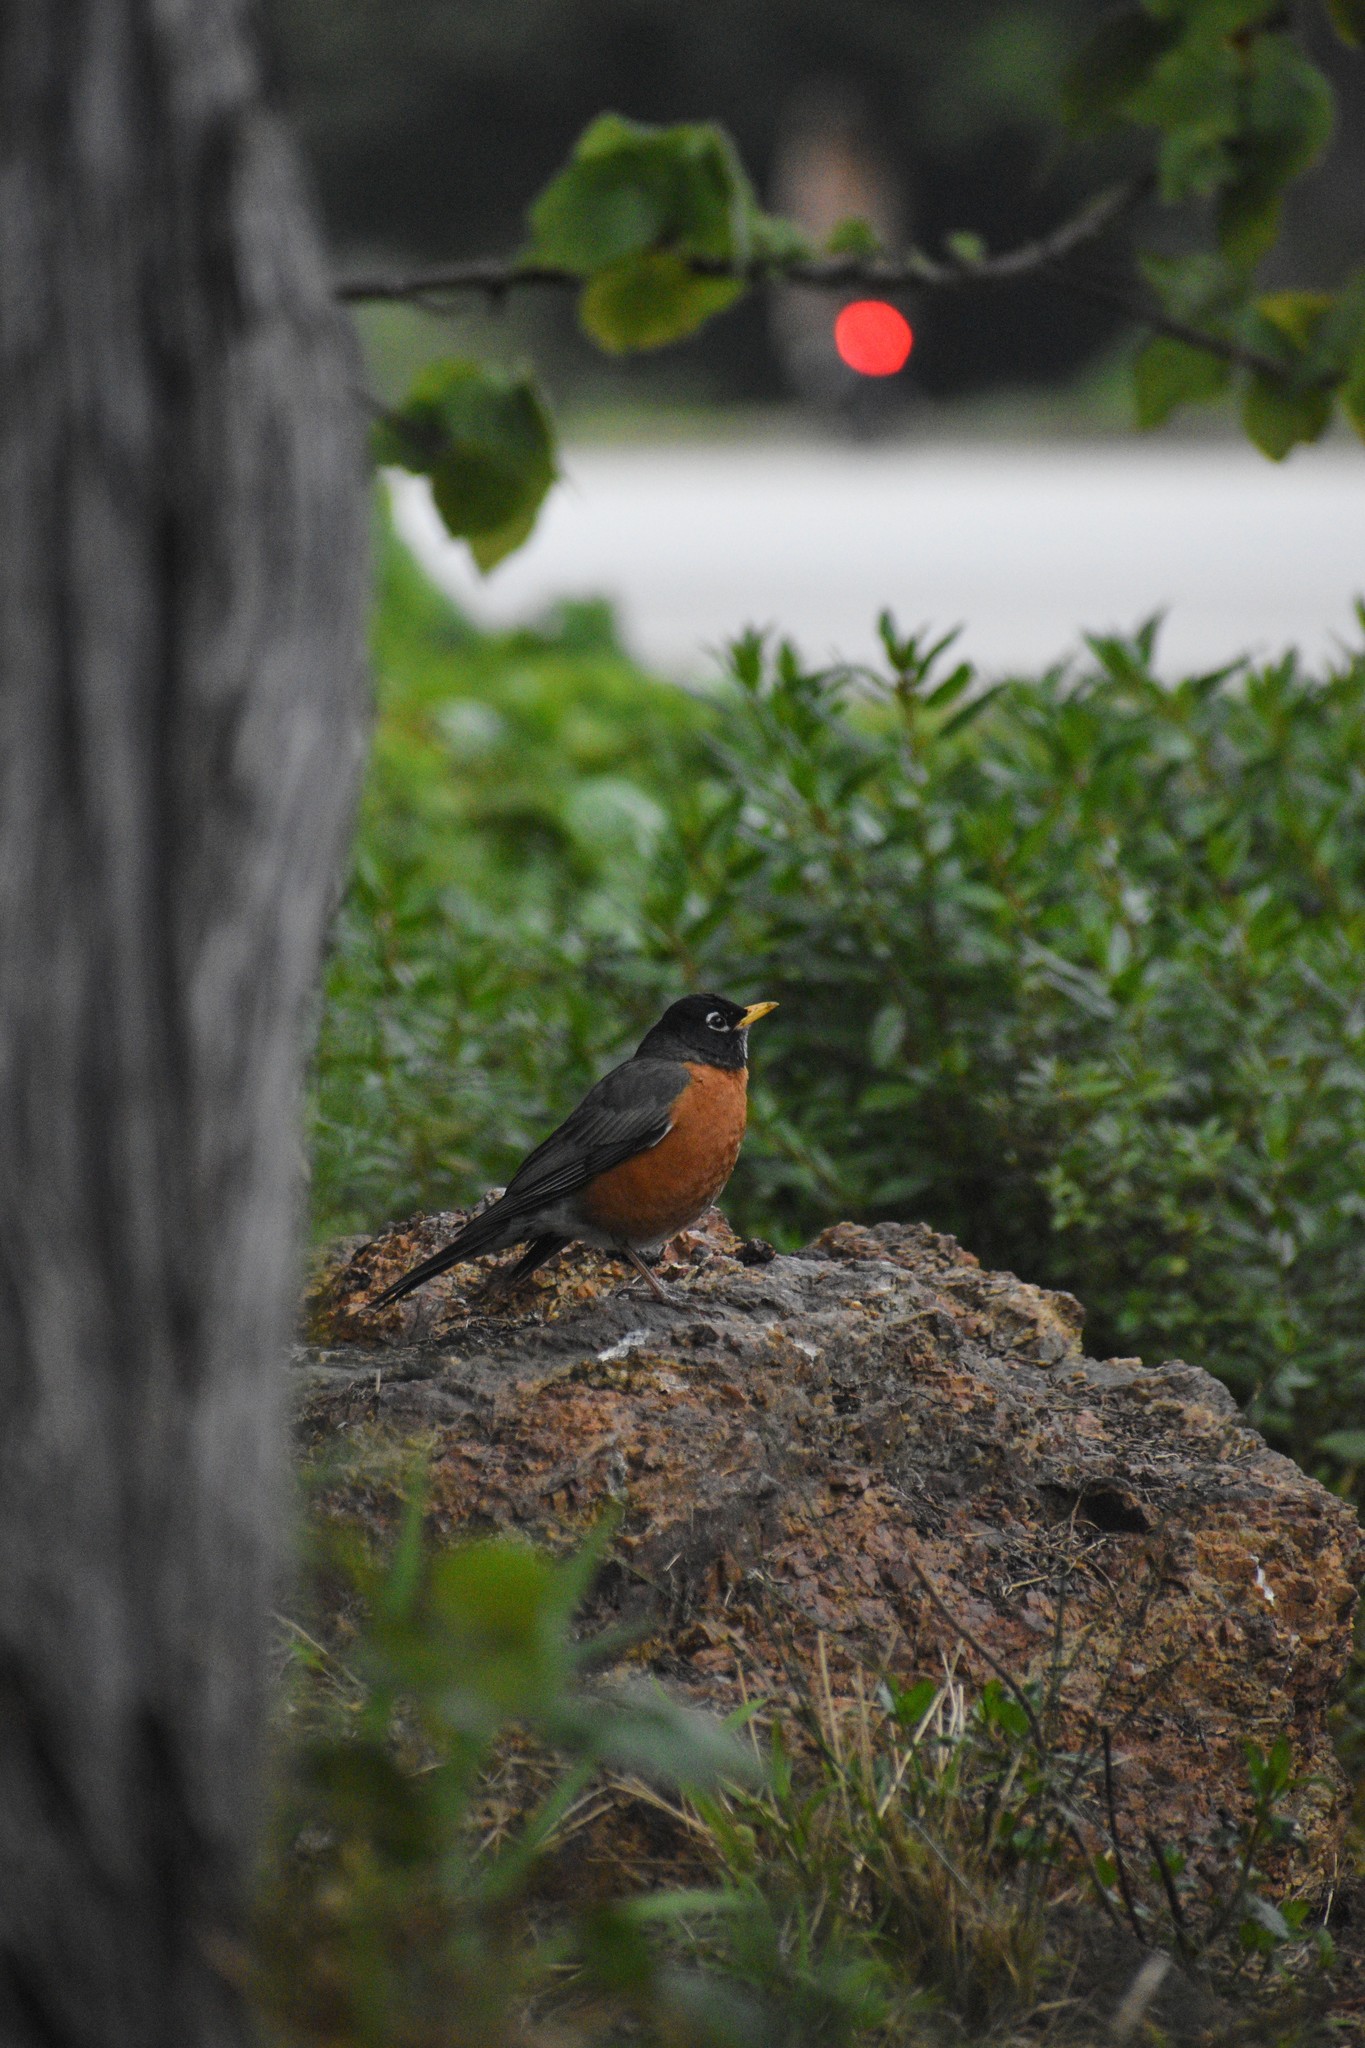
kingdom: Animalia
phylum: Chordata
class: Aves
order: Passeriformes
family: Turdidae
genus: Turdus
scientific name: Turdus migratorius
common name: American robin
